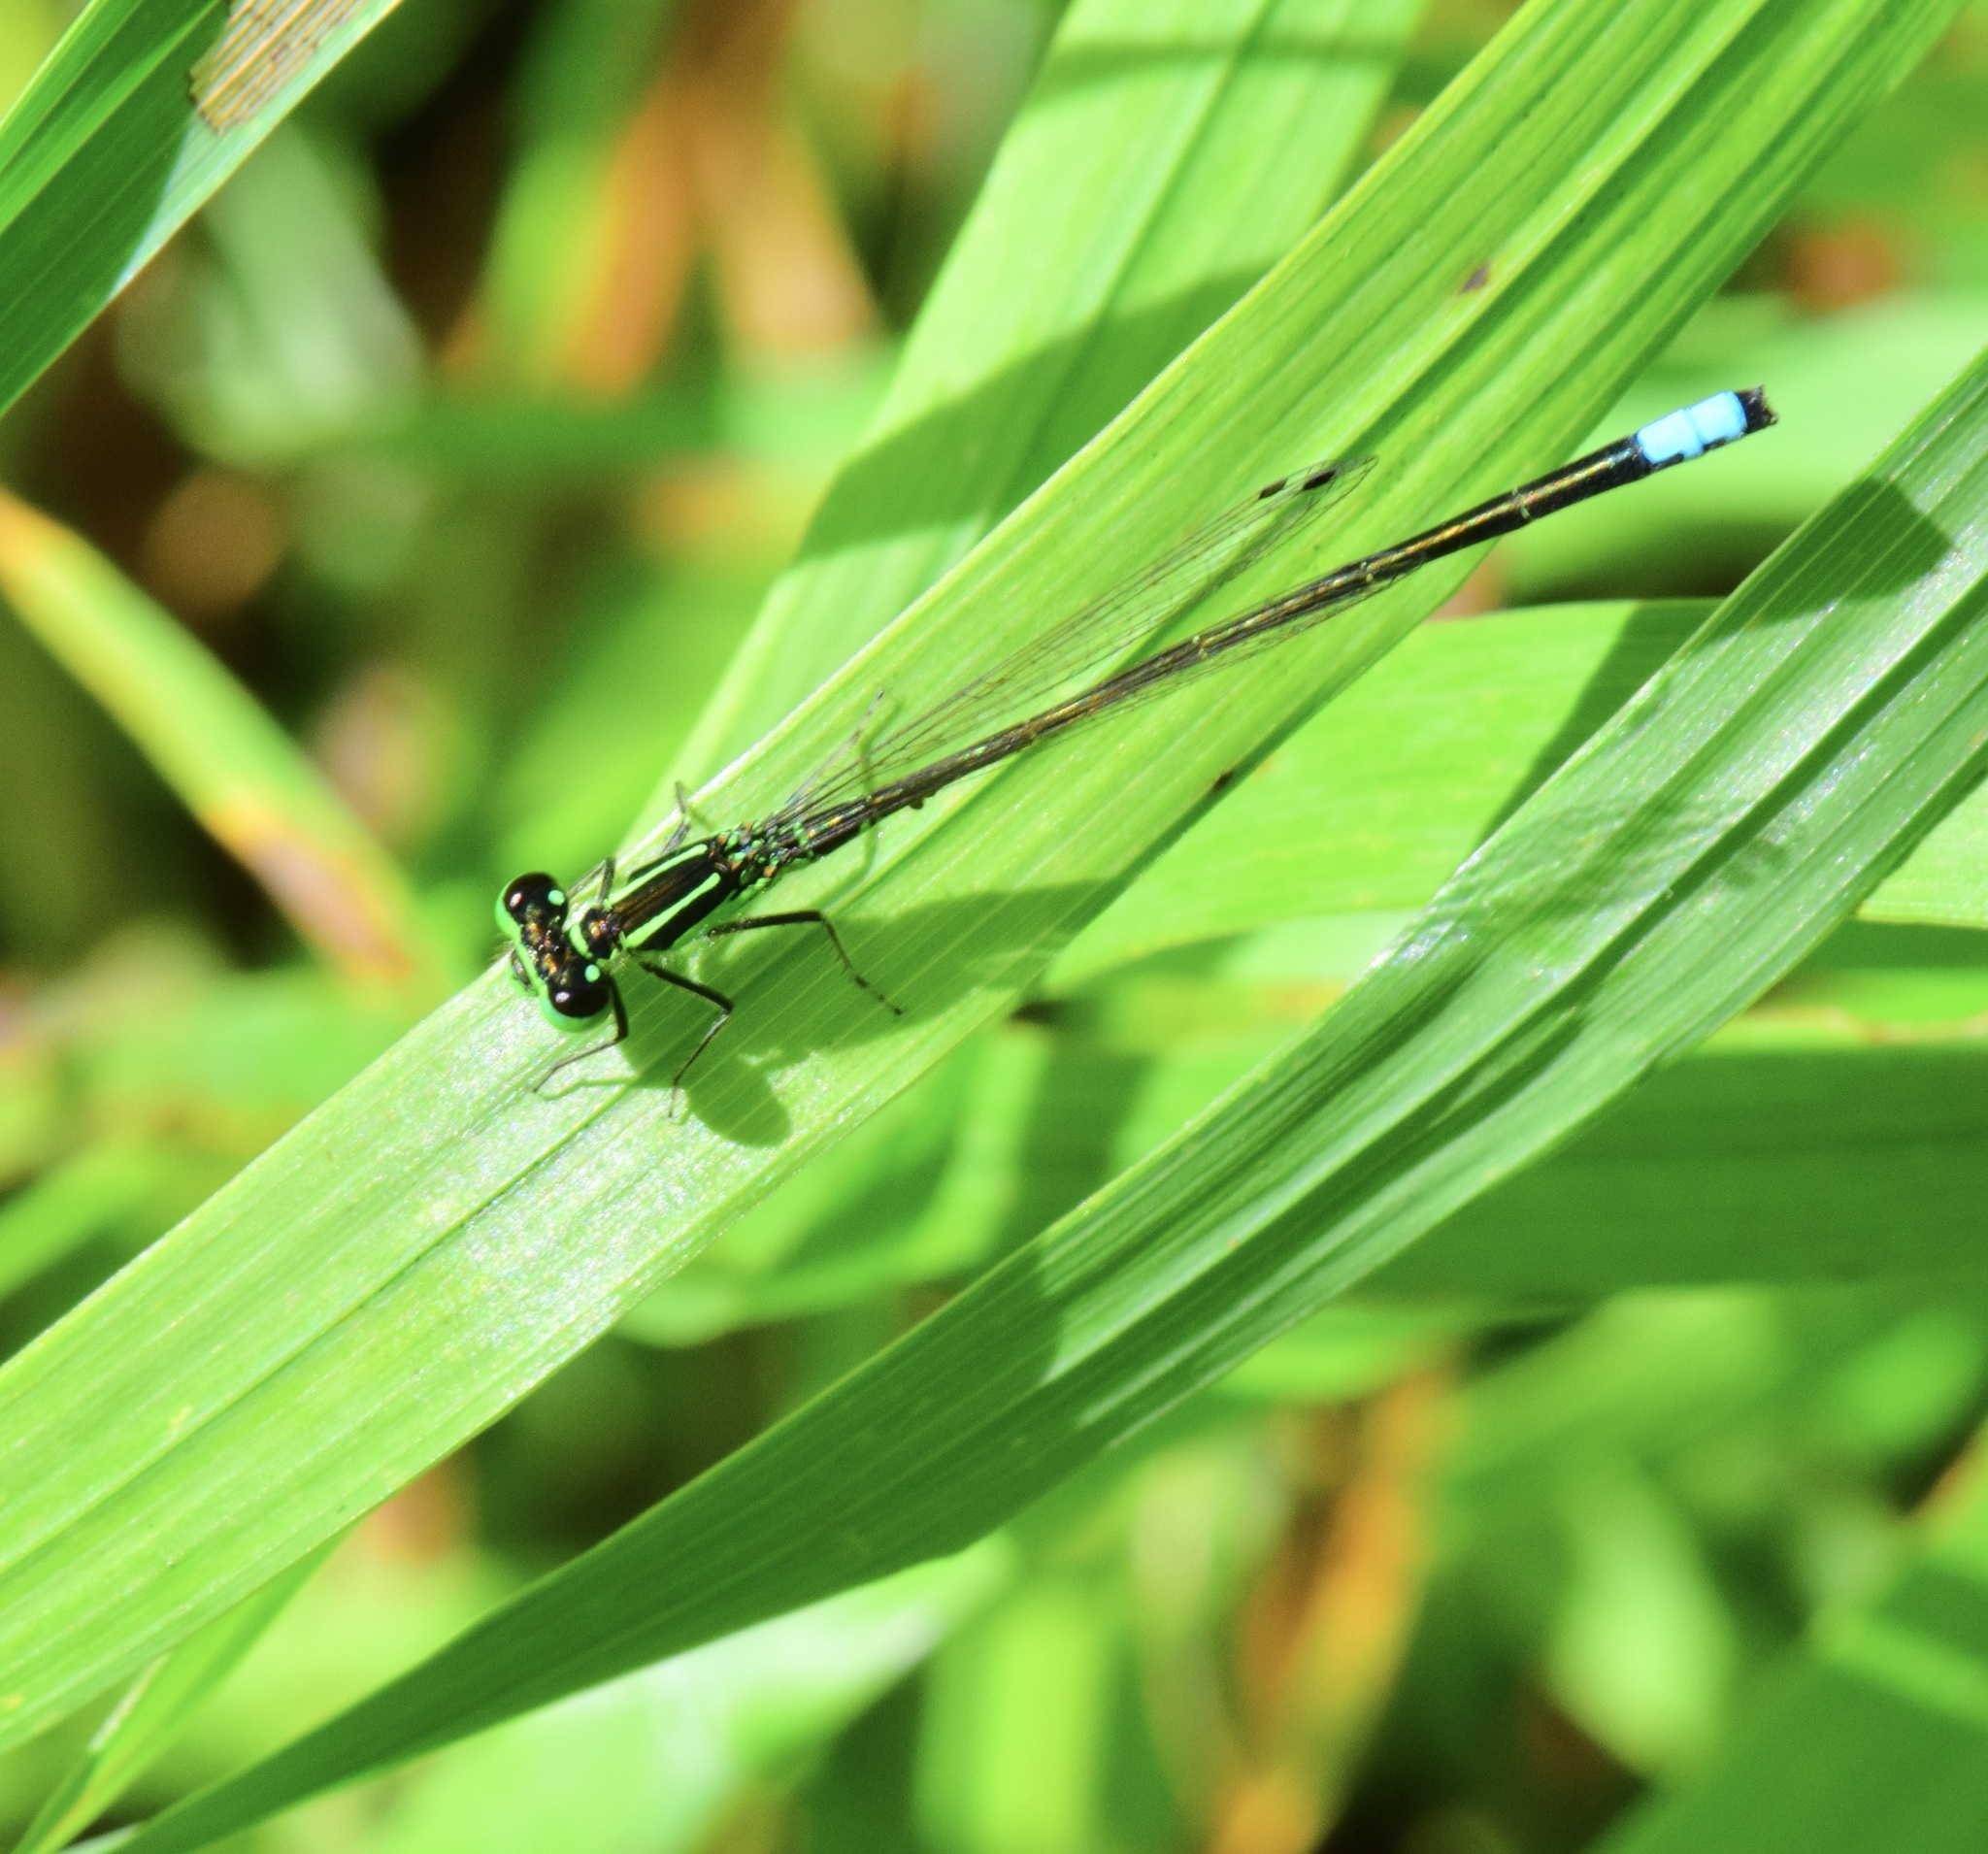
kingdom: Animalia
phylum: Arthropoda
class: Insecta
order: Odonata
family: Coenagrionidae
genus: Ischnura
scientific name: Ischnura verticalis
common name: Eastern forktail
